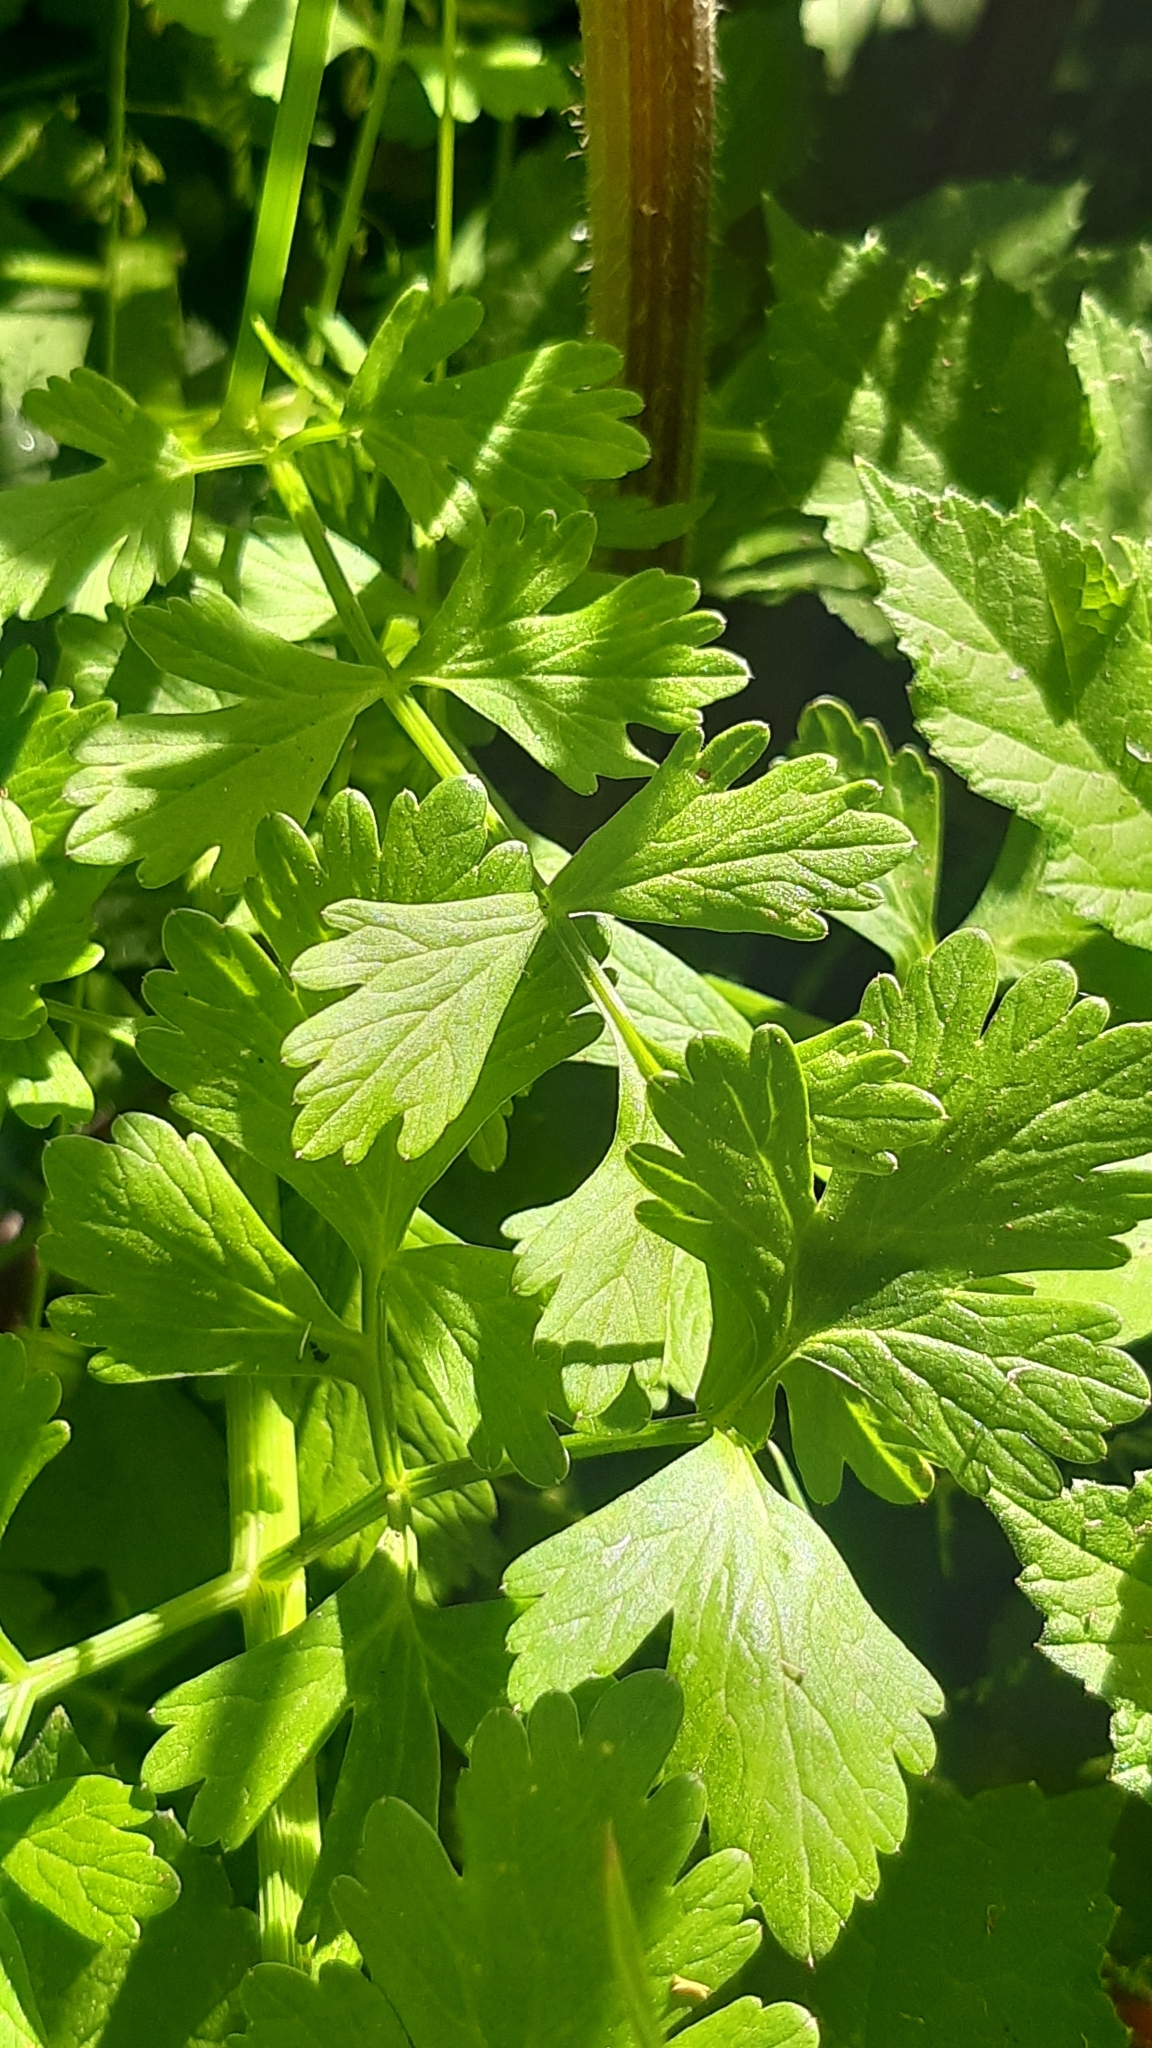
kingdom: Plantae
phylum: Tracheophyta
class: Magnoliopsida
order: Apiales
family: Apiaceae
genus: Oenanthe
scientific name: Oenanthe crocata
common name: Hemlock water-dropwort
